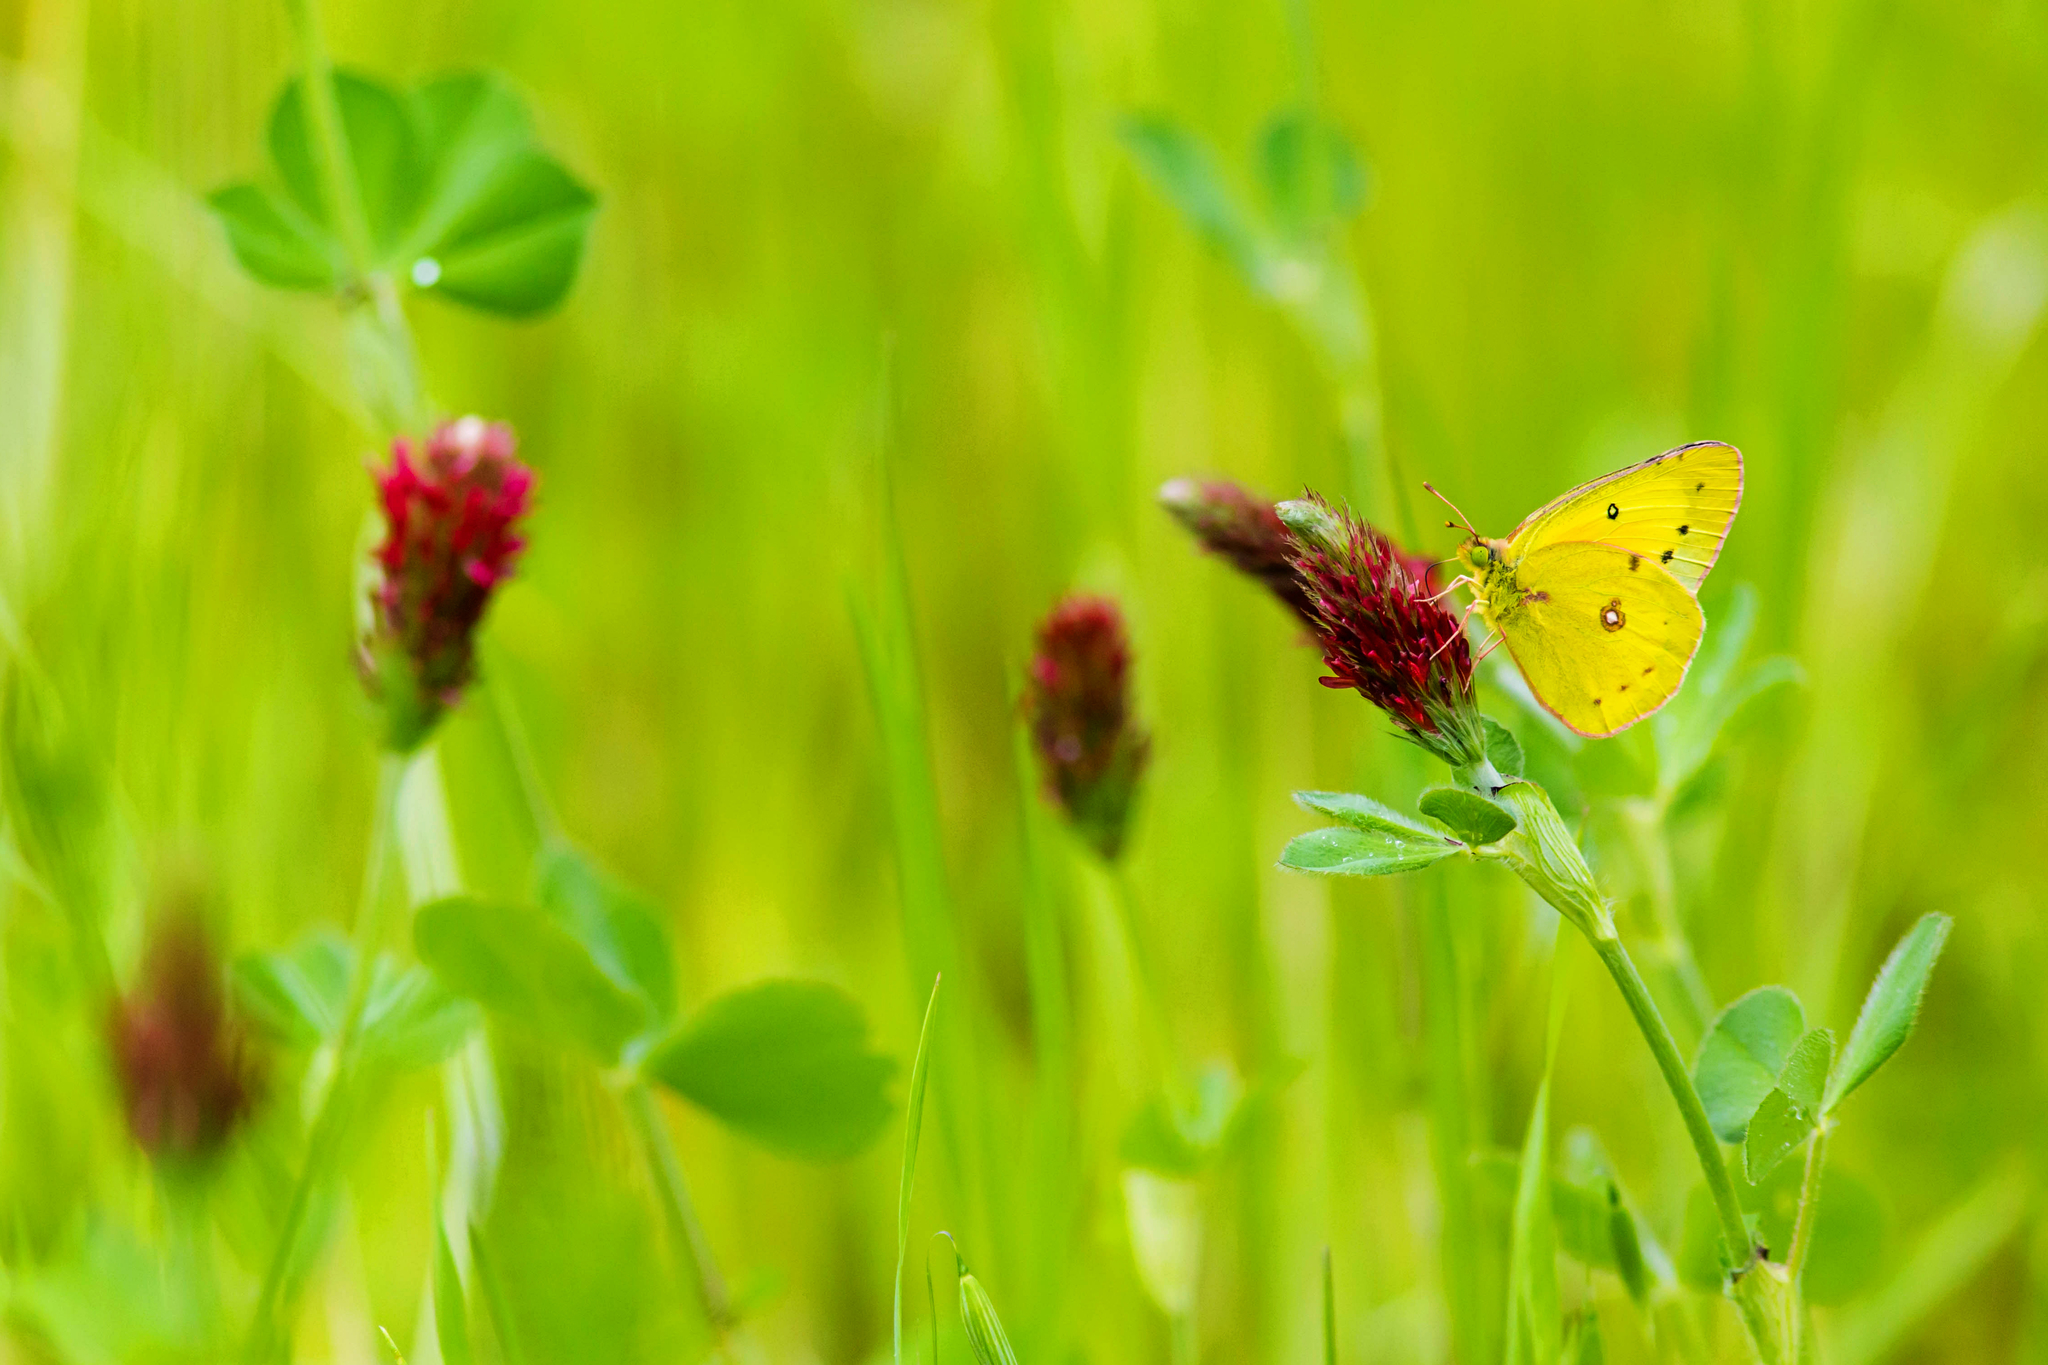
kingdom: Animalia
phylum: Arthropoda
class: Insecta
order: Lepidoptera
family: Pieridae
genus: Colias
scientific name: Colias eurytheme
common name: Alfalfa butterfly
